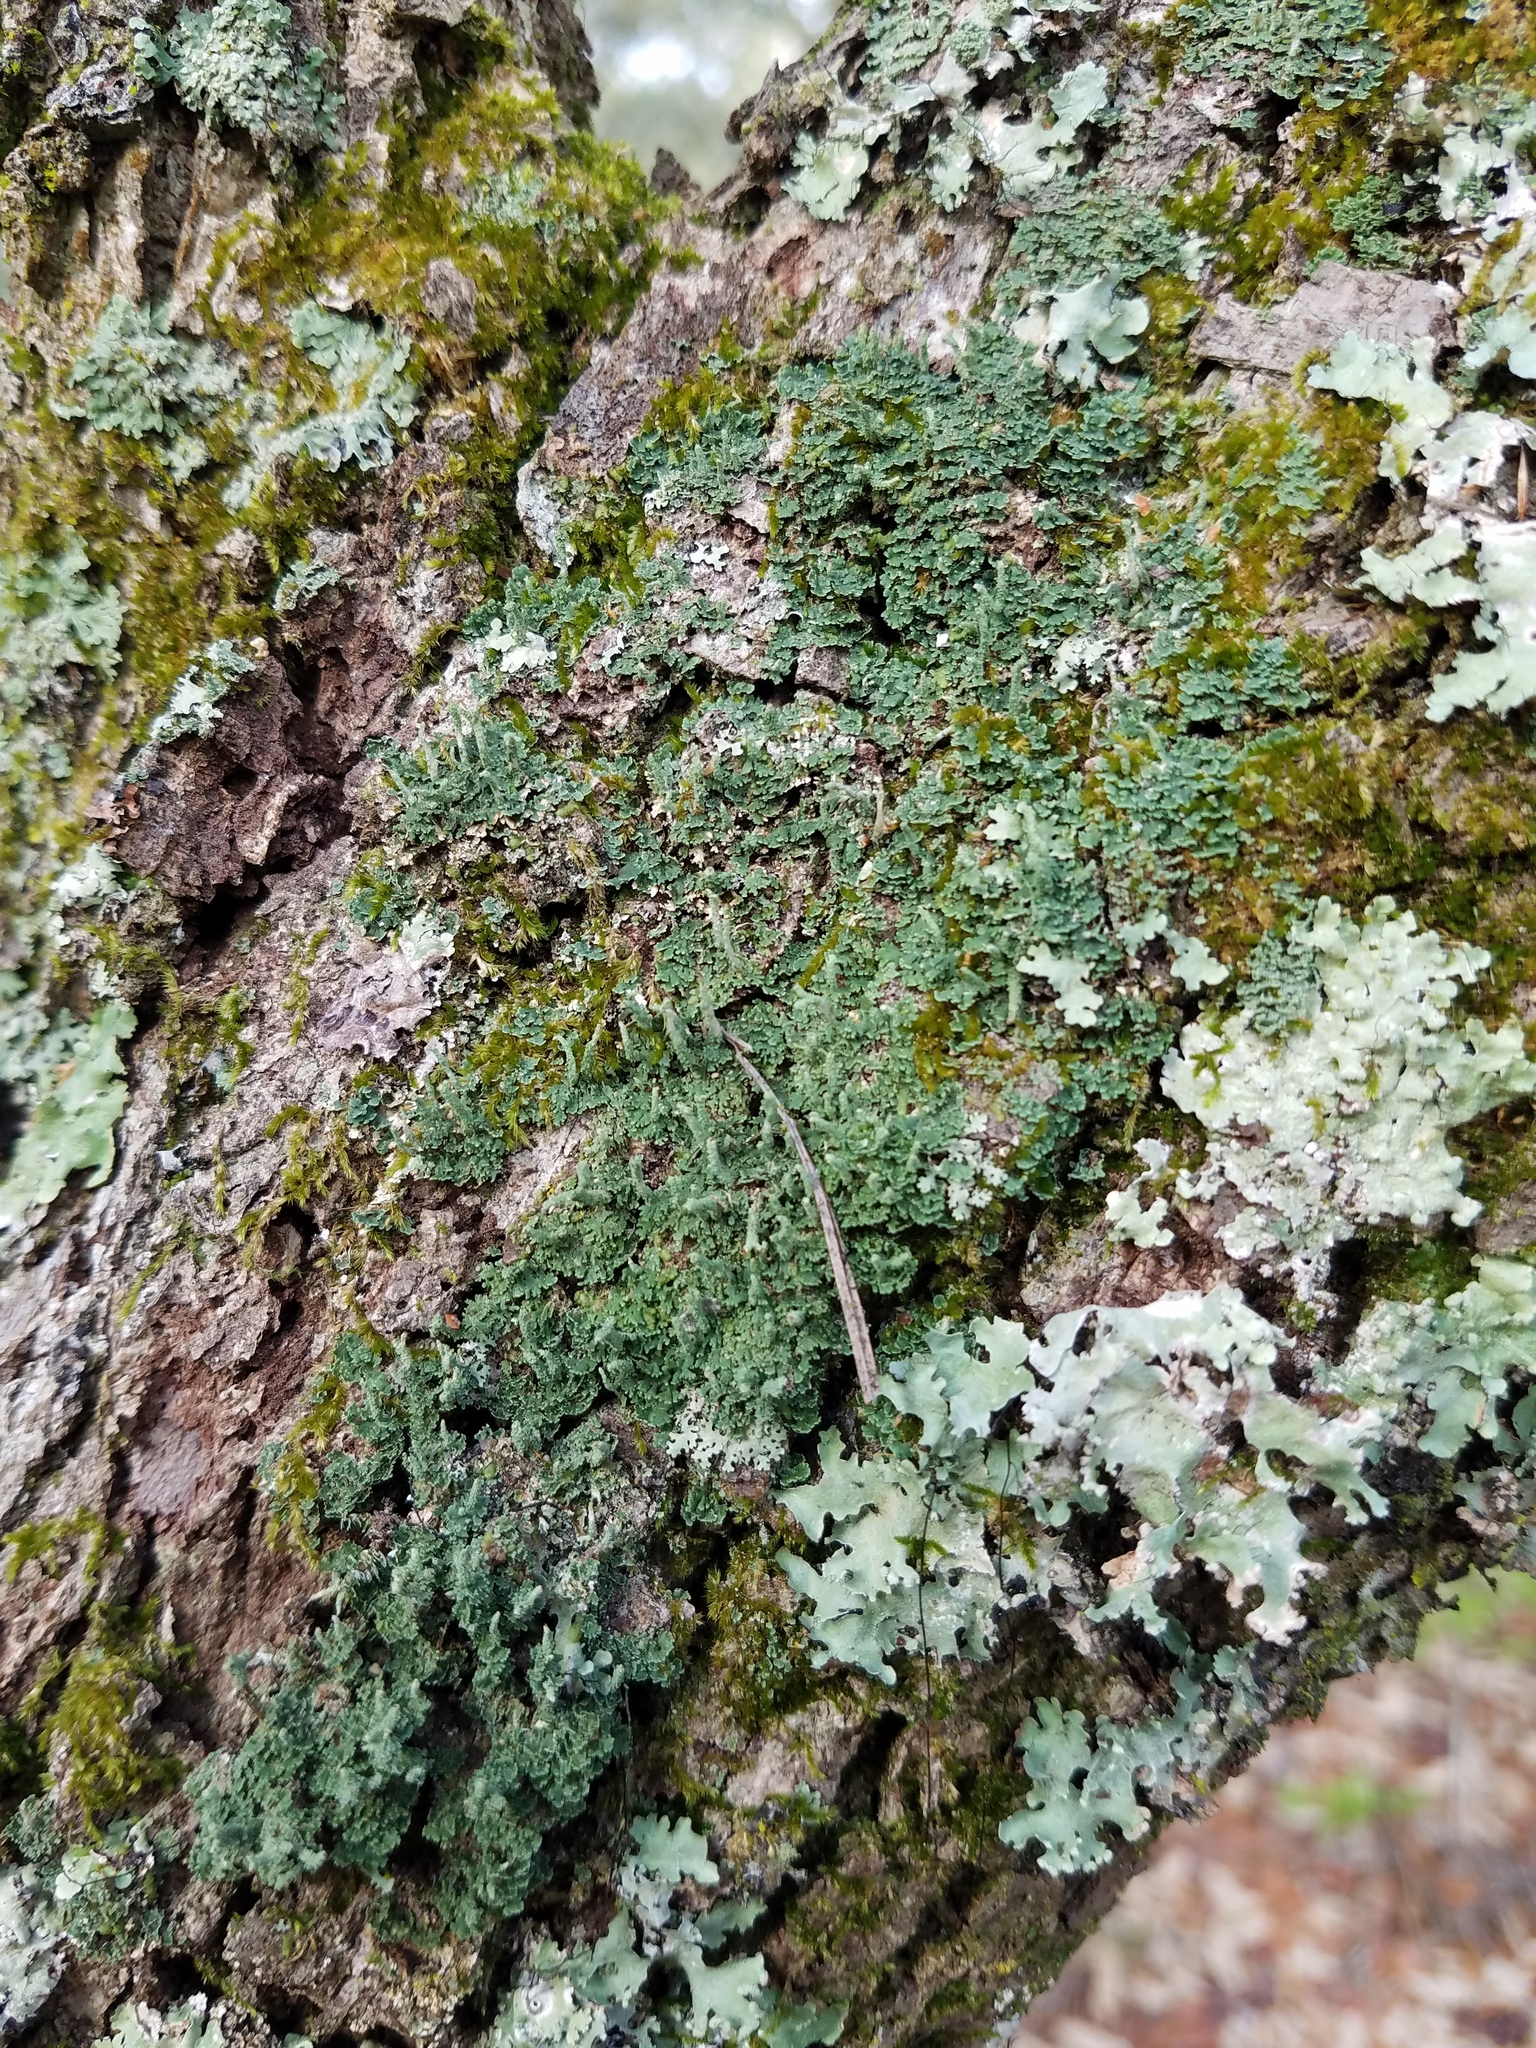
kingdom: Fungi
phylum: Ascomycota
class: Lecanoromycetes
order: Lecanorales
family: Cladoniaceae
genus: Cladonia
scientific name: Cladonia didyma
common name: Southern soldiers
